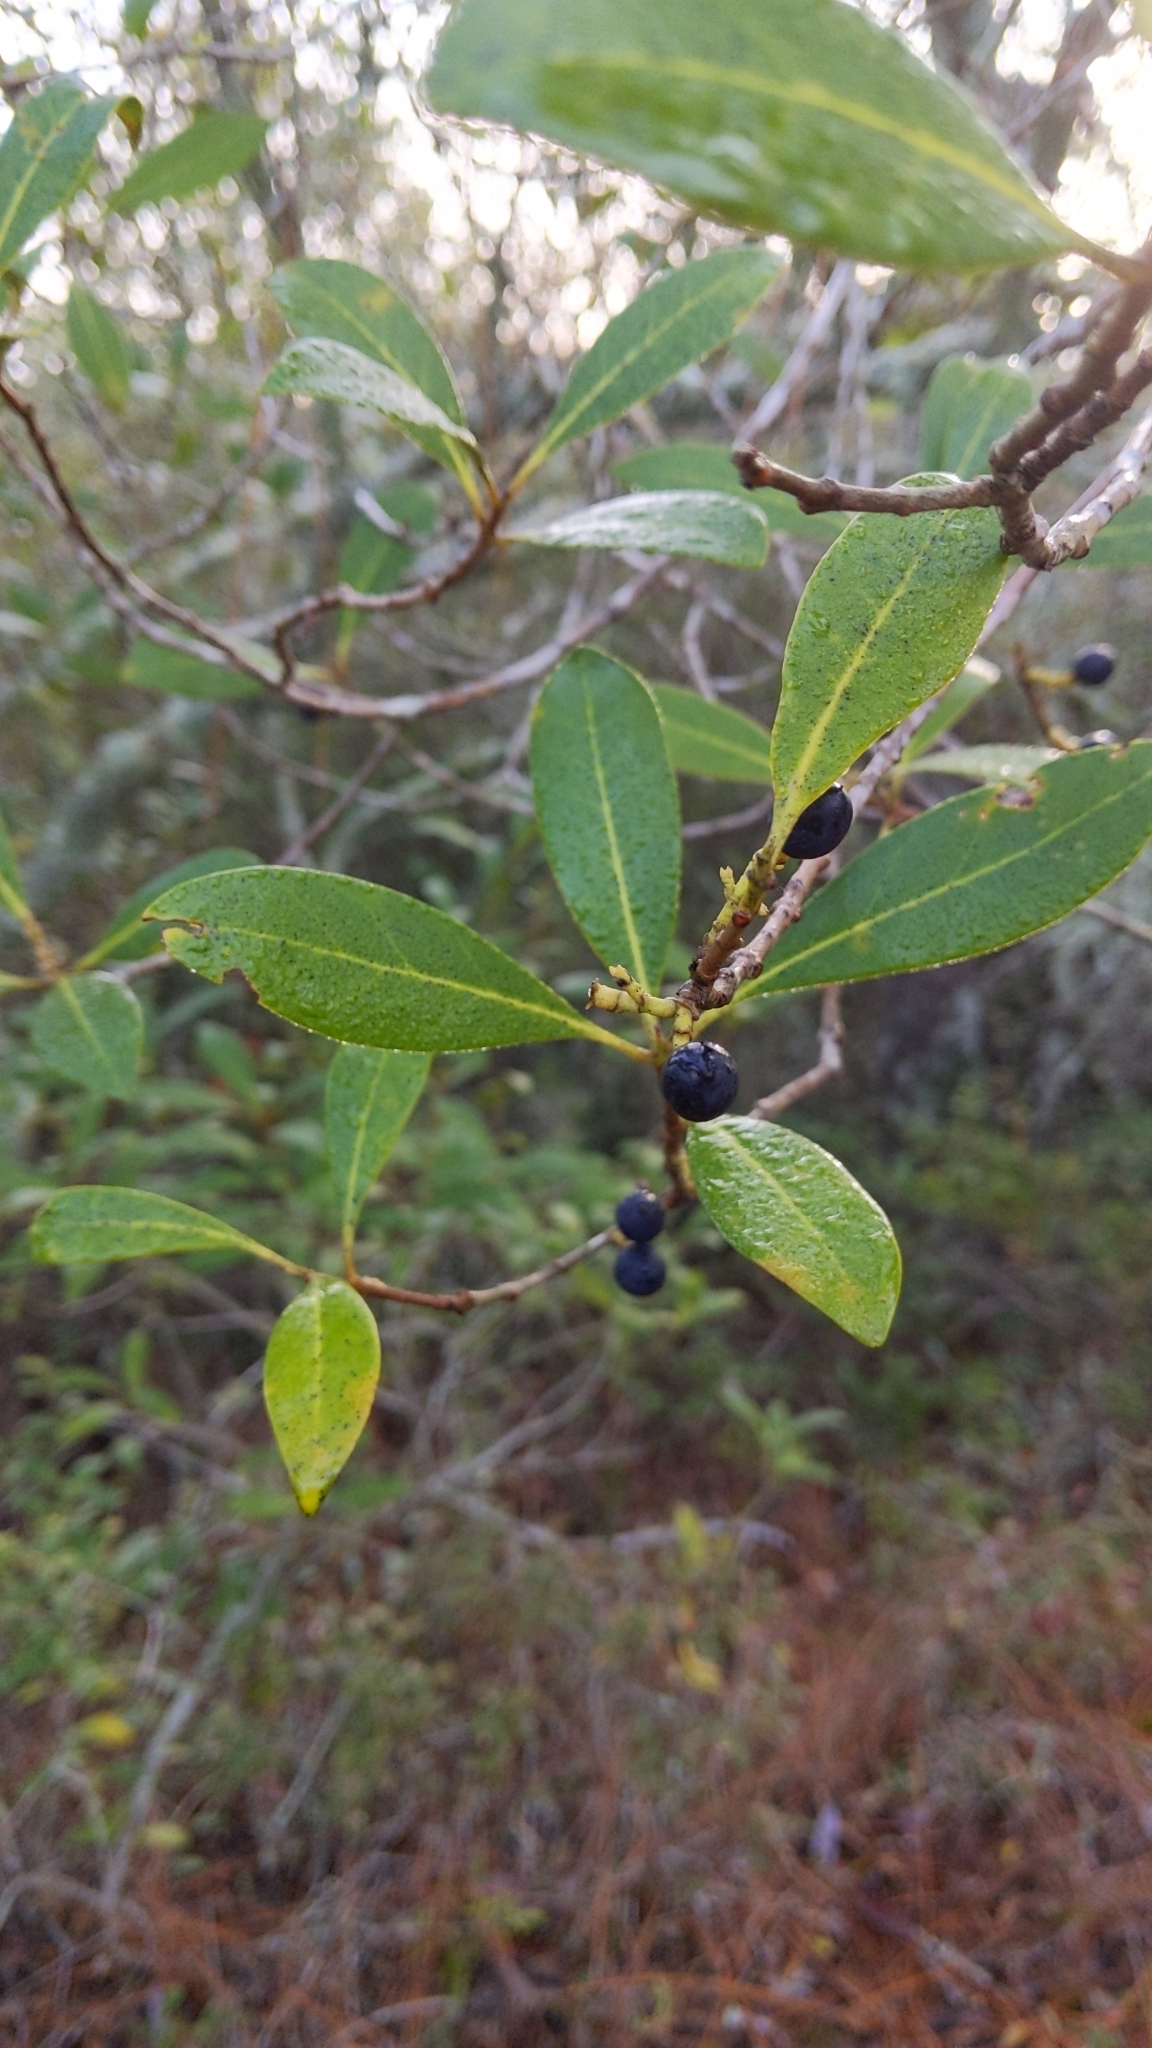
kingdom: Plantae
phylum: Tracheophyta
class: Magnoliopsida
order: Lamiales
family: Oleaceae
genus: Cartrema
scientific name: Cartrema americana
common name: Devilwood
